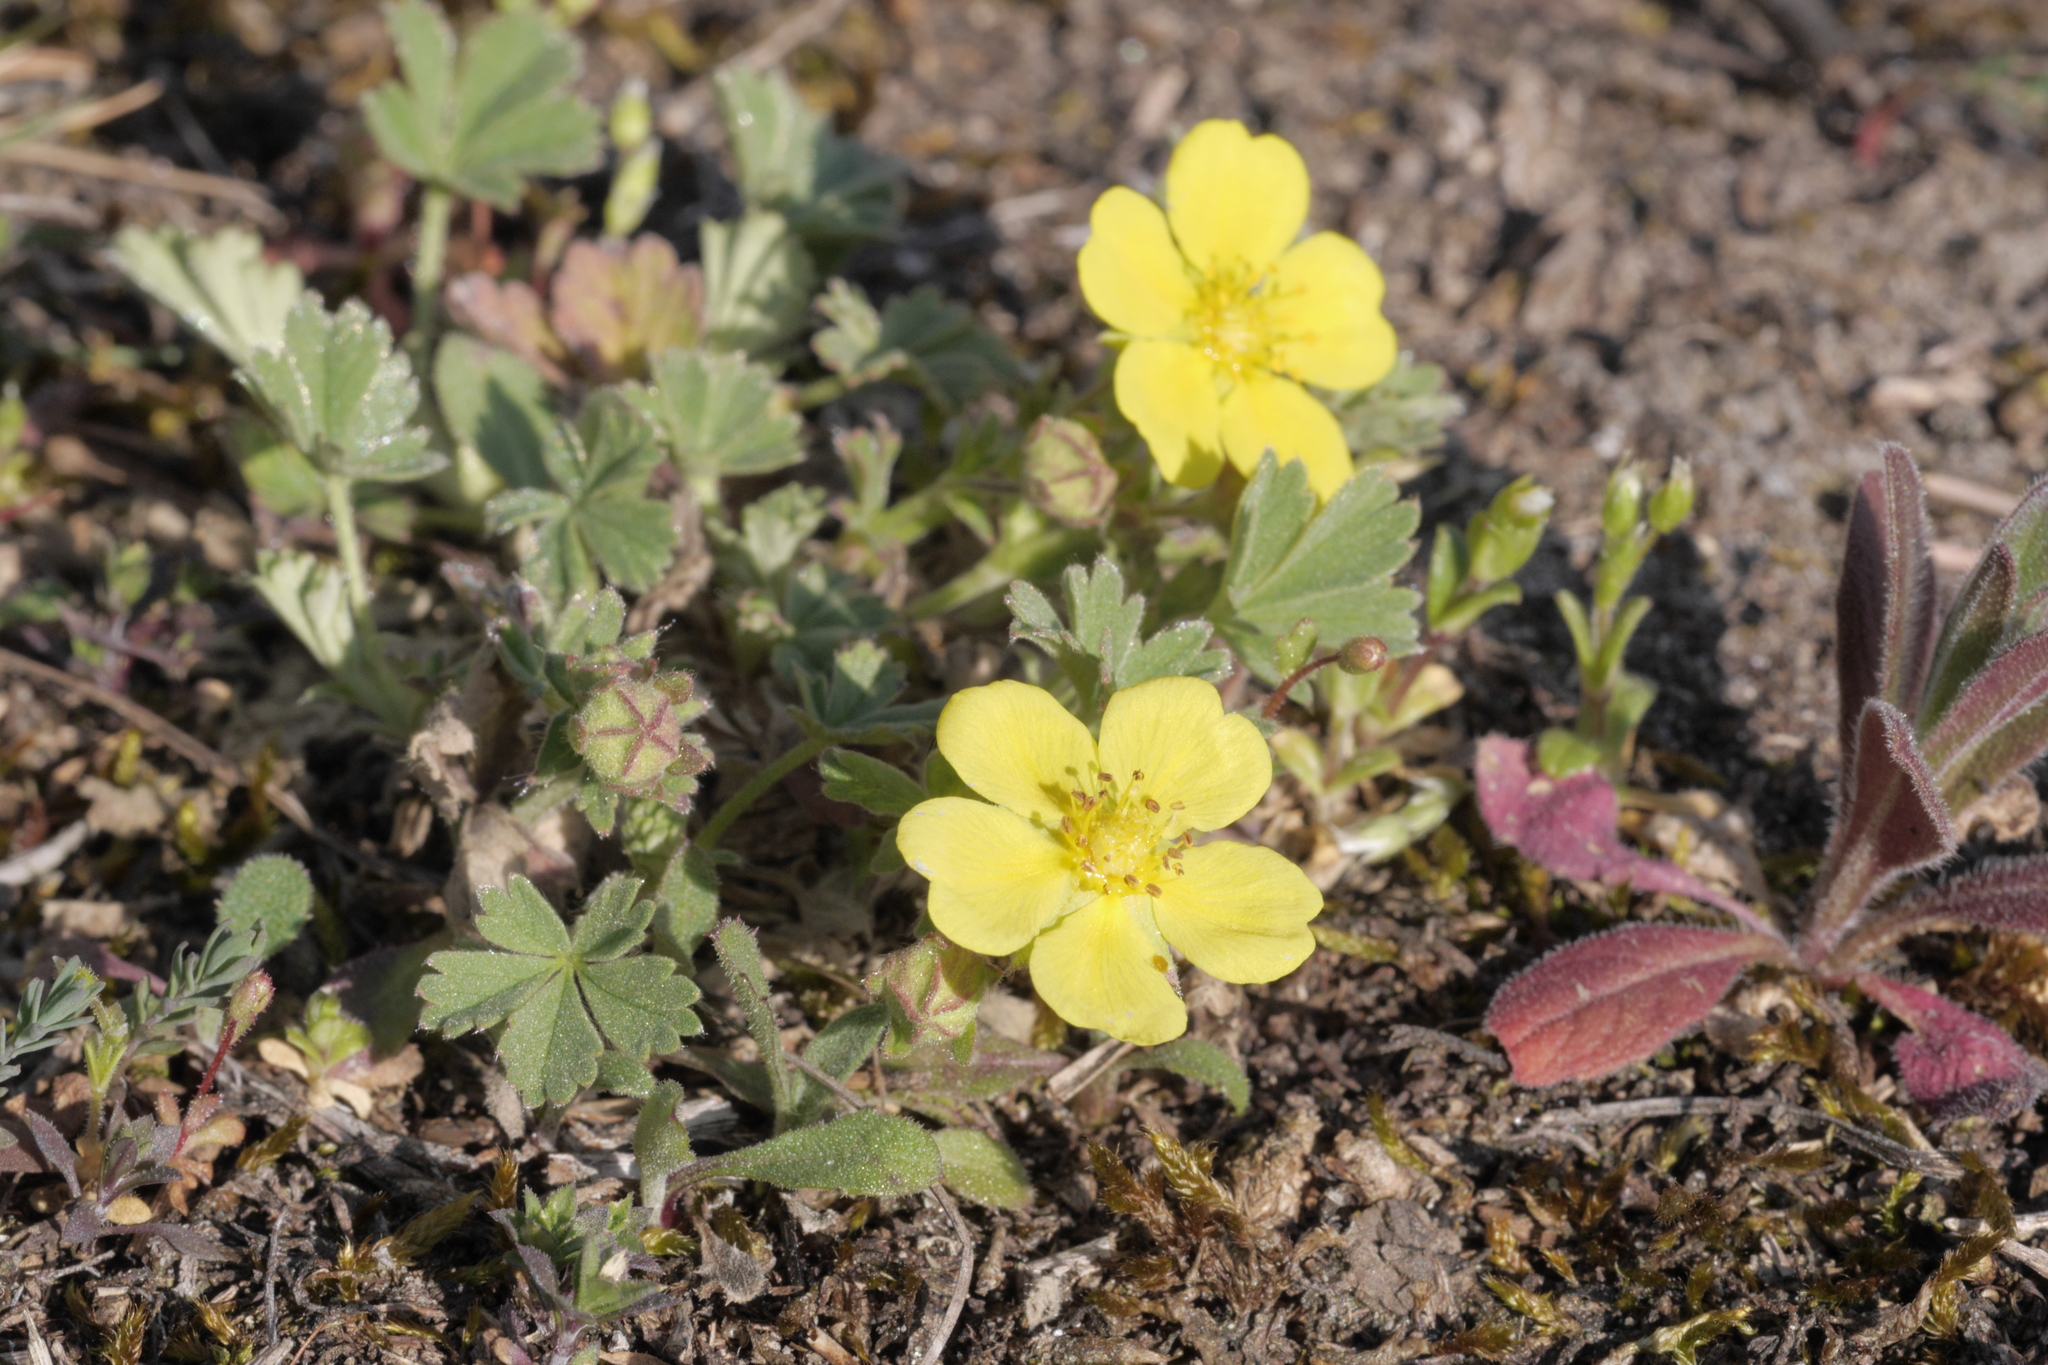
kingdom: Plantae
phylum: Tracheophyta
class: Magnoliopsida
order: Rosales
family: Rosaceae
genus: Potentilla
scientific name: Potentilla verna
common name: Spring cinquefoil
